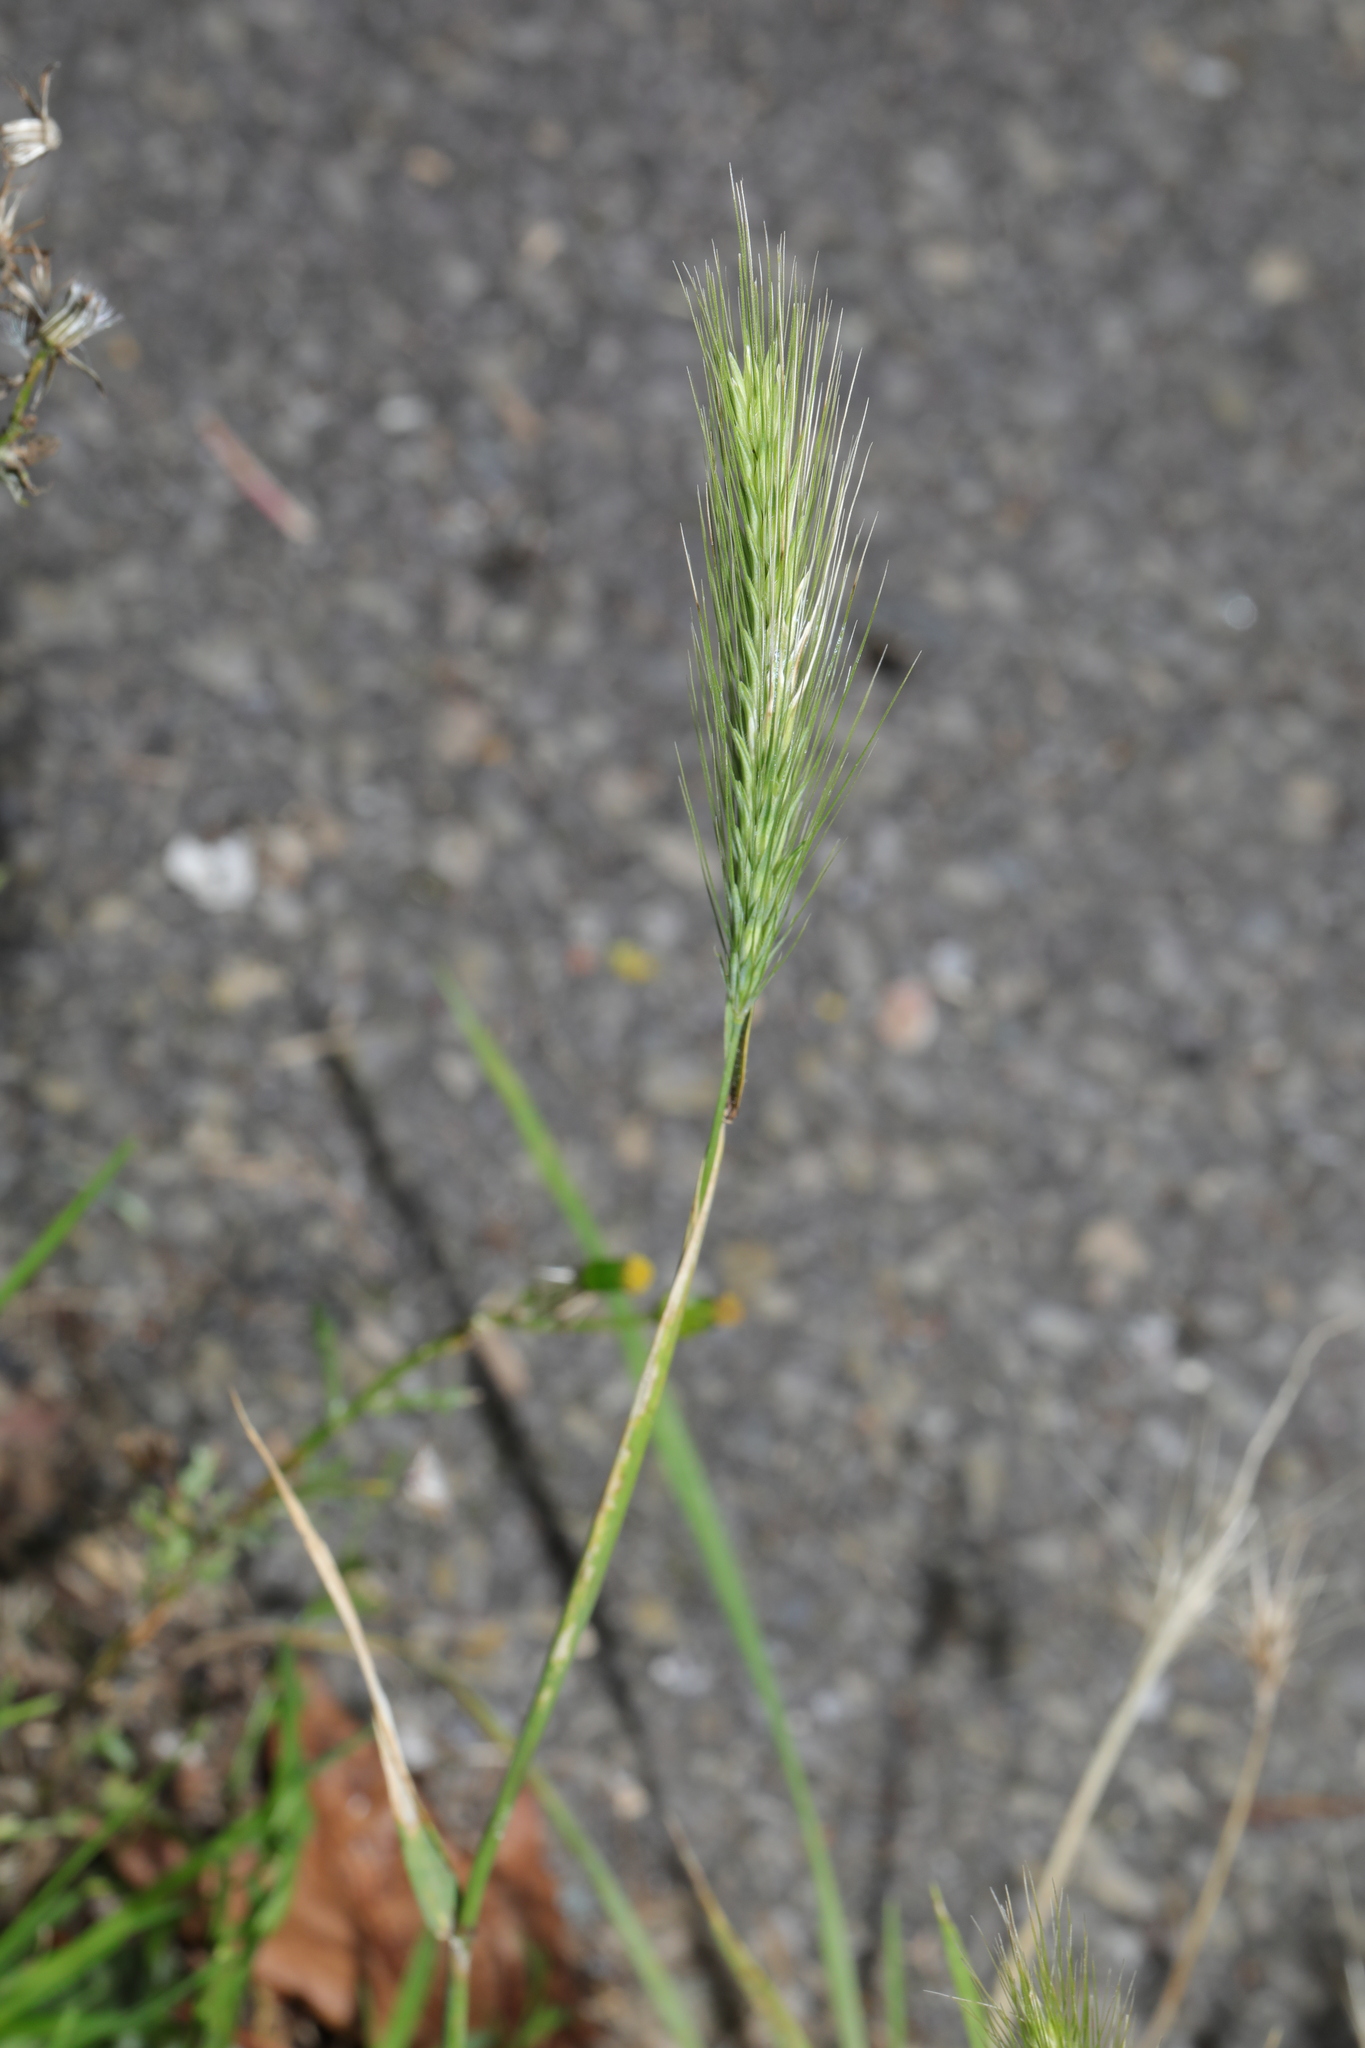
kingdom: Plantae
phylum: Tracheophyta
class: Liliopsida
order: Poales
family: Poaceae
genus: Hordeum
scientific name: Hordeum murinum
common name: Wall barley
